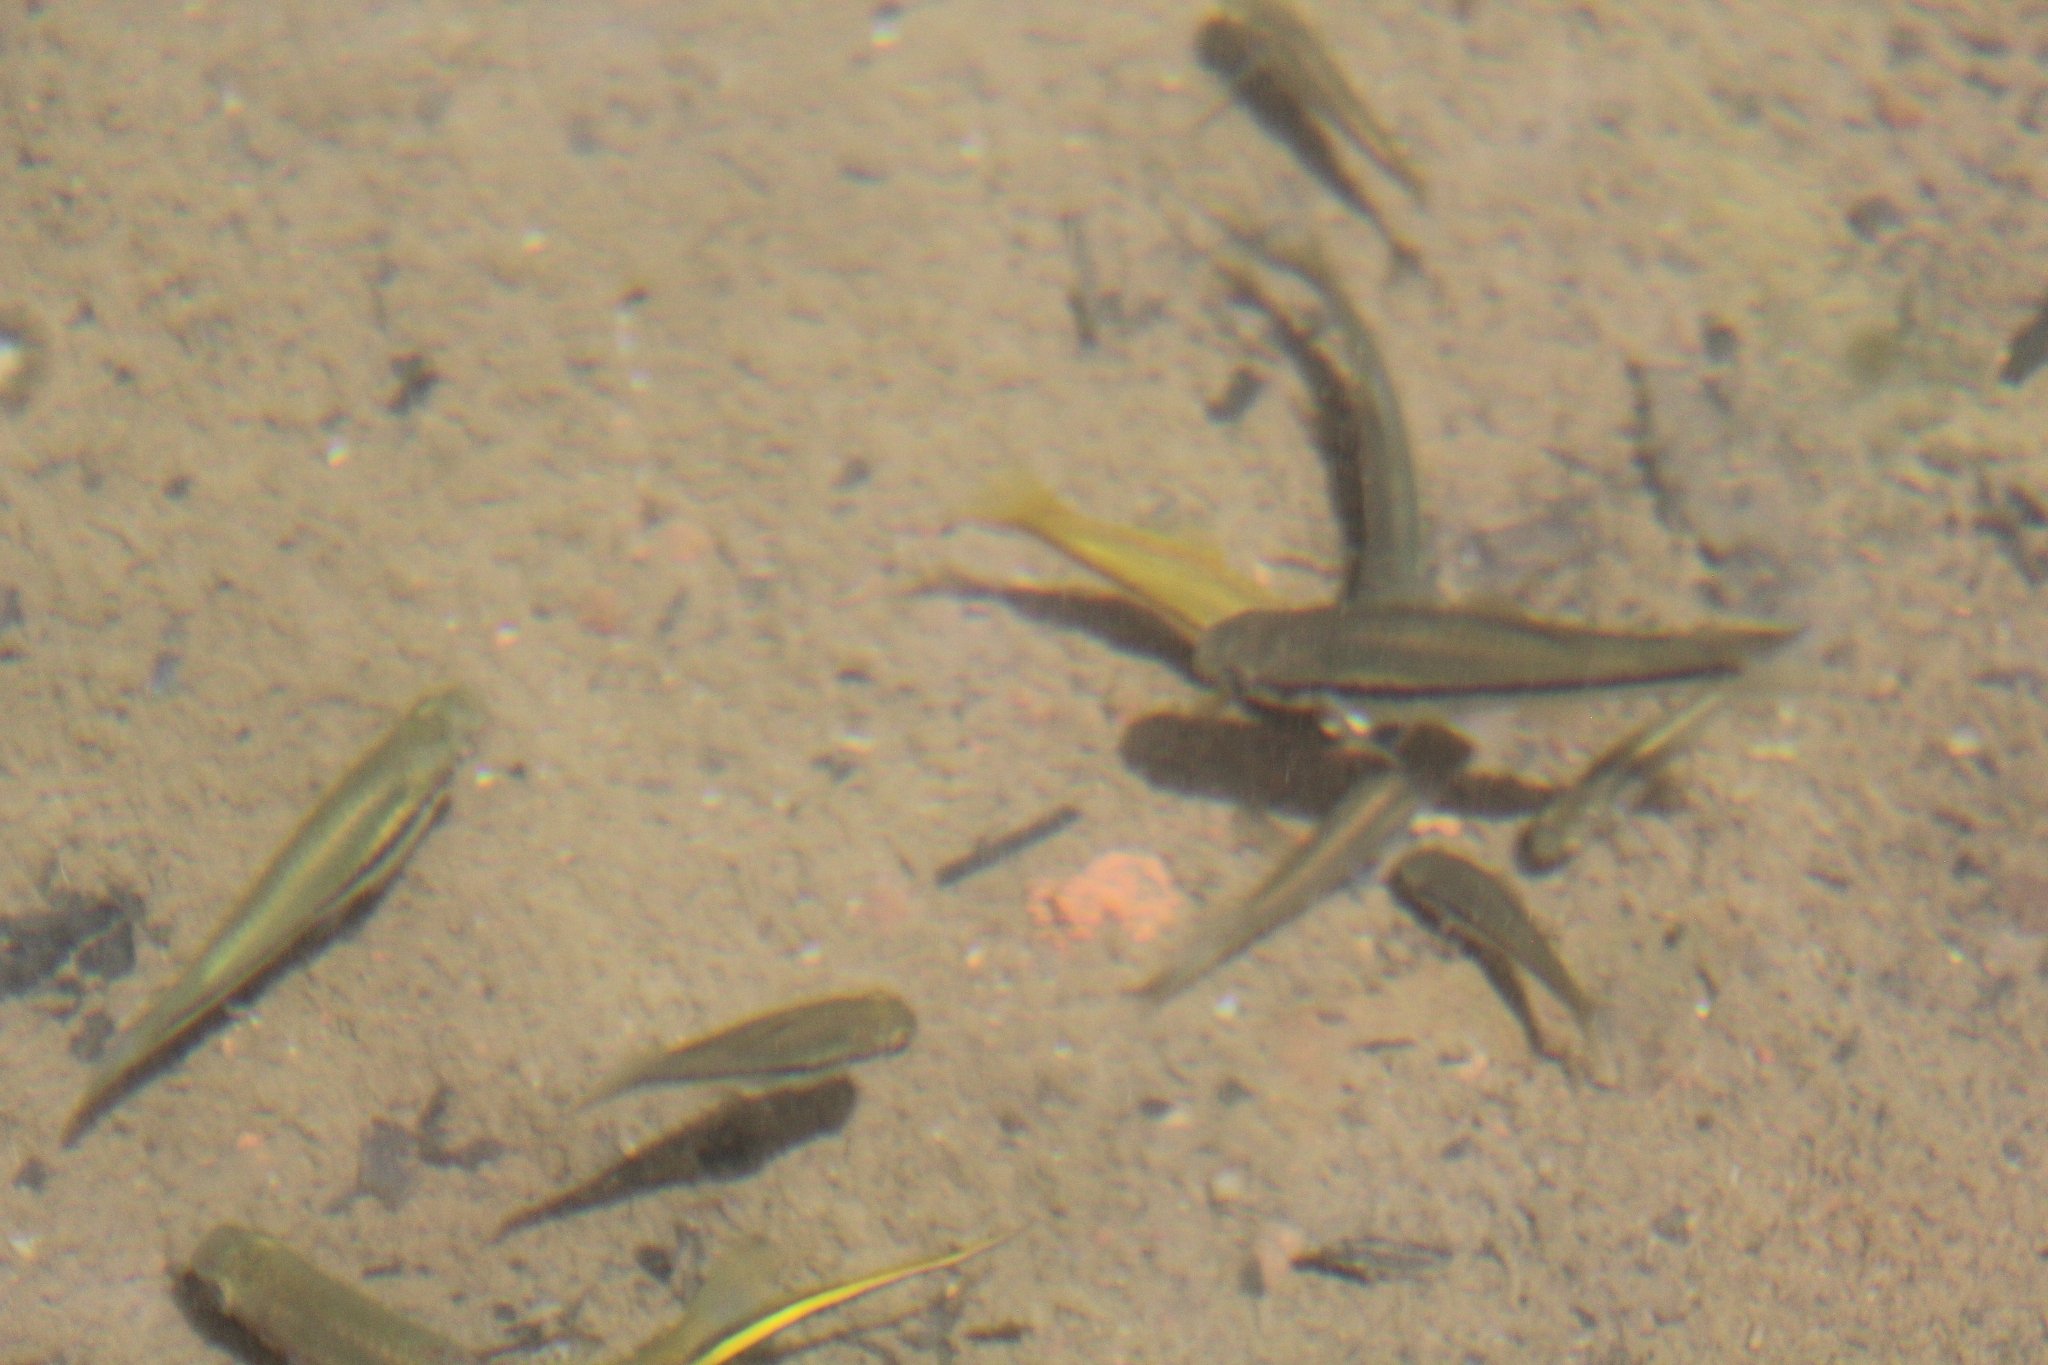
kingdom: Animalia
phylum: Chordata
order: Cyprinodontiformes
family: Poeciliidae
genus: Xiphophorus
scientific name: Xiphophorus hellerii
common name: Green swordtail
